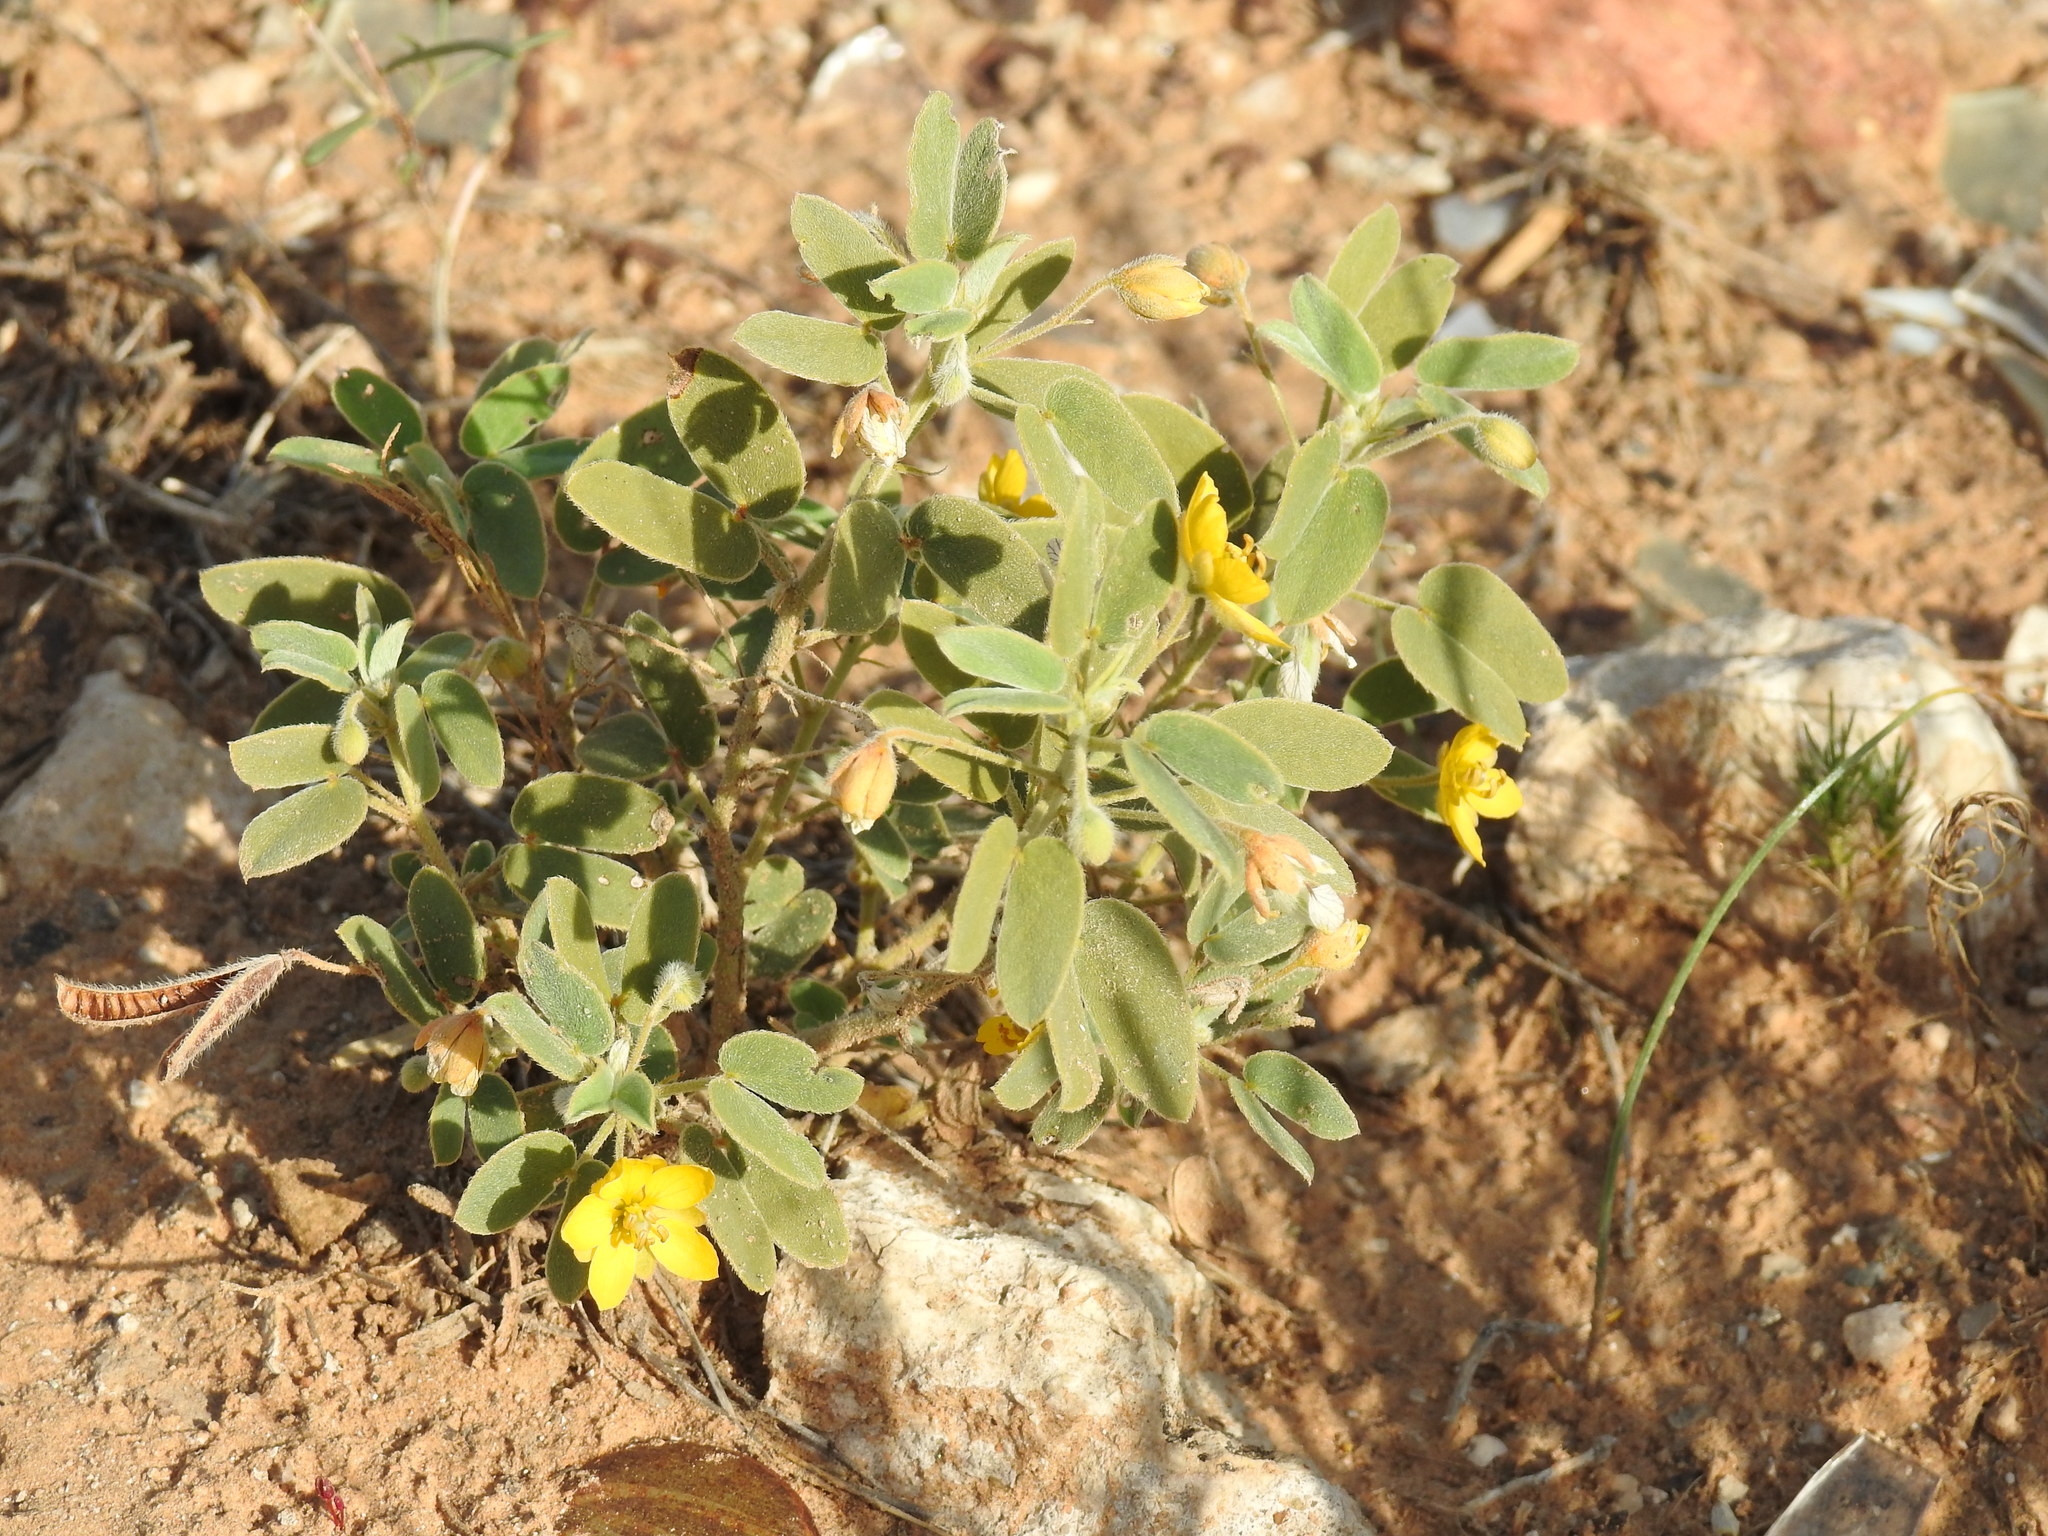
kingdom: Plantae
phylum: Tracheophyta
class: Magnoliopsida
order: Fabales
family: Fabaceae
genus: Senna
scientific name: Senna bauhinioides
